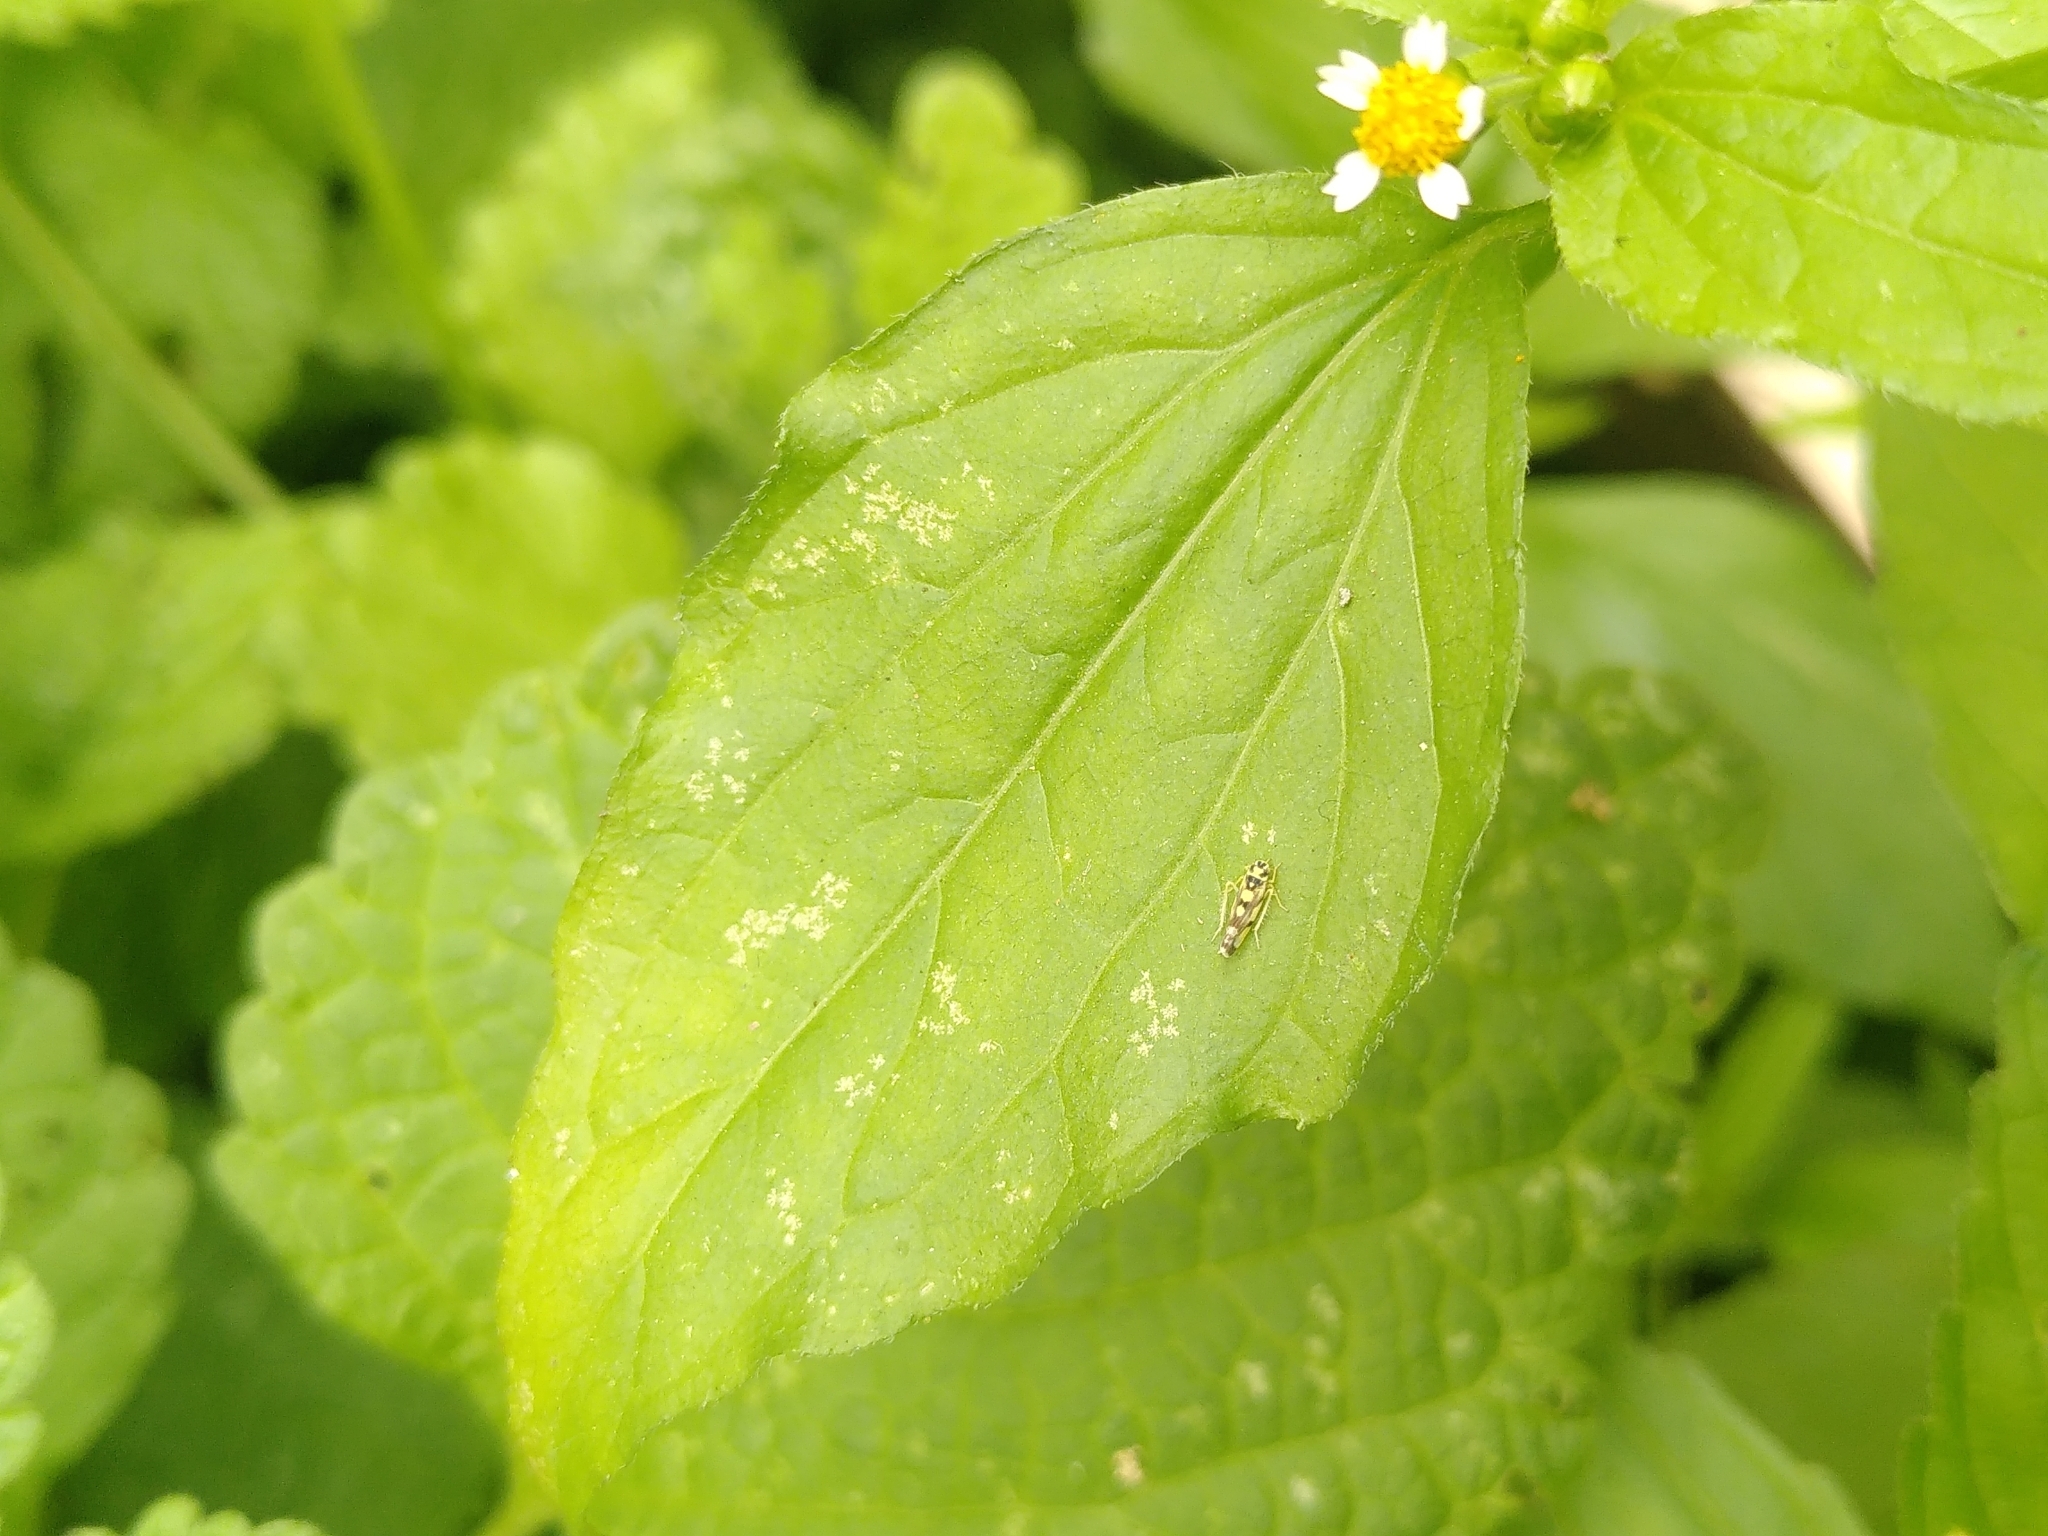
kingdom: Plantae
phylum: Tracheophyta
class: Magnoliopsida
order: Asterales
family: Asteraceae
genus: Galinsoga
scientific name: Galinsoga parviflora
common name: Gallant soldier
